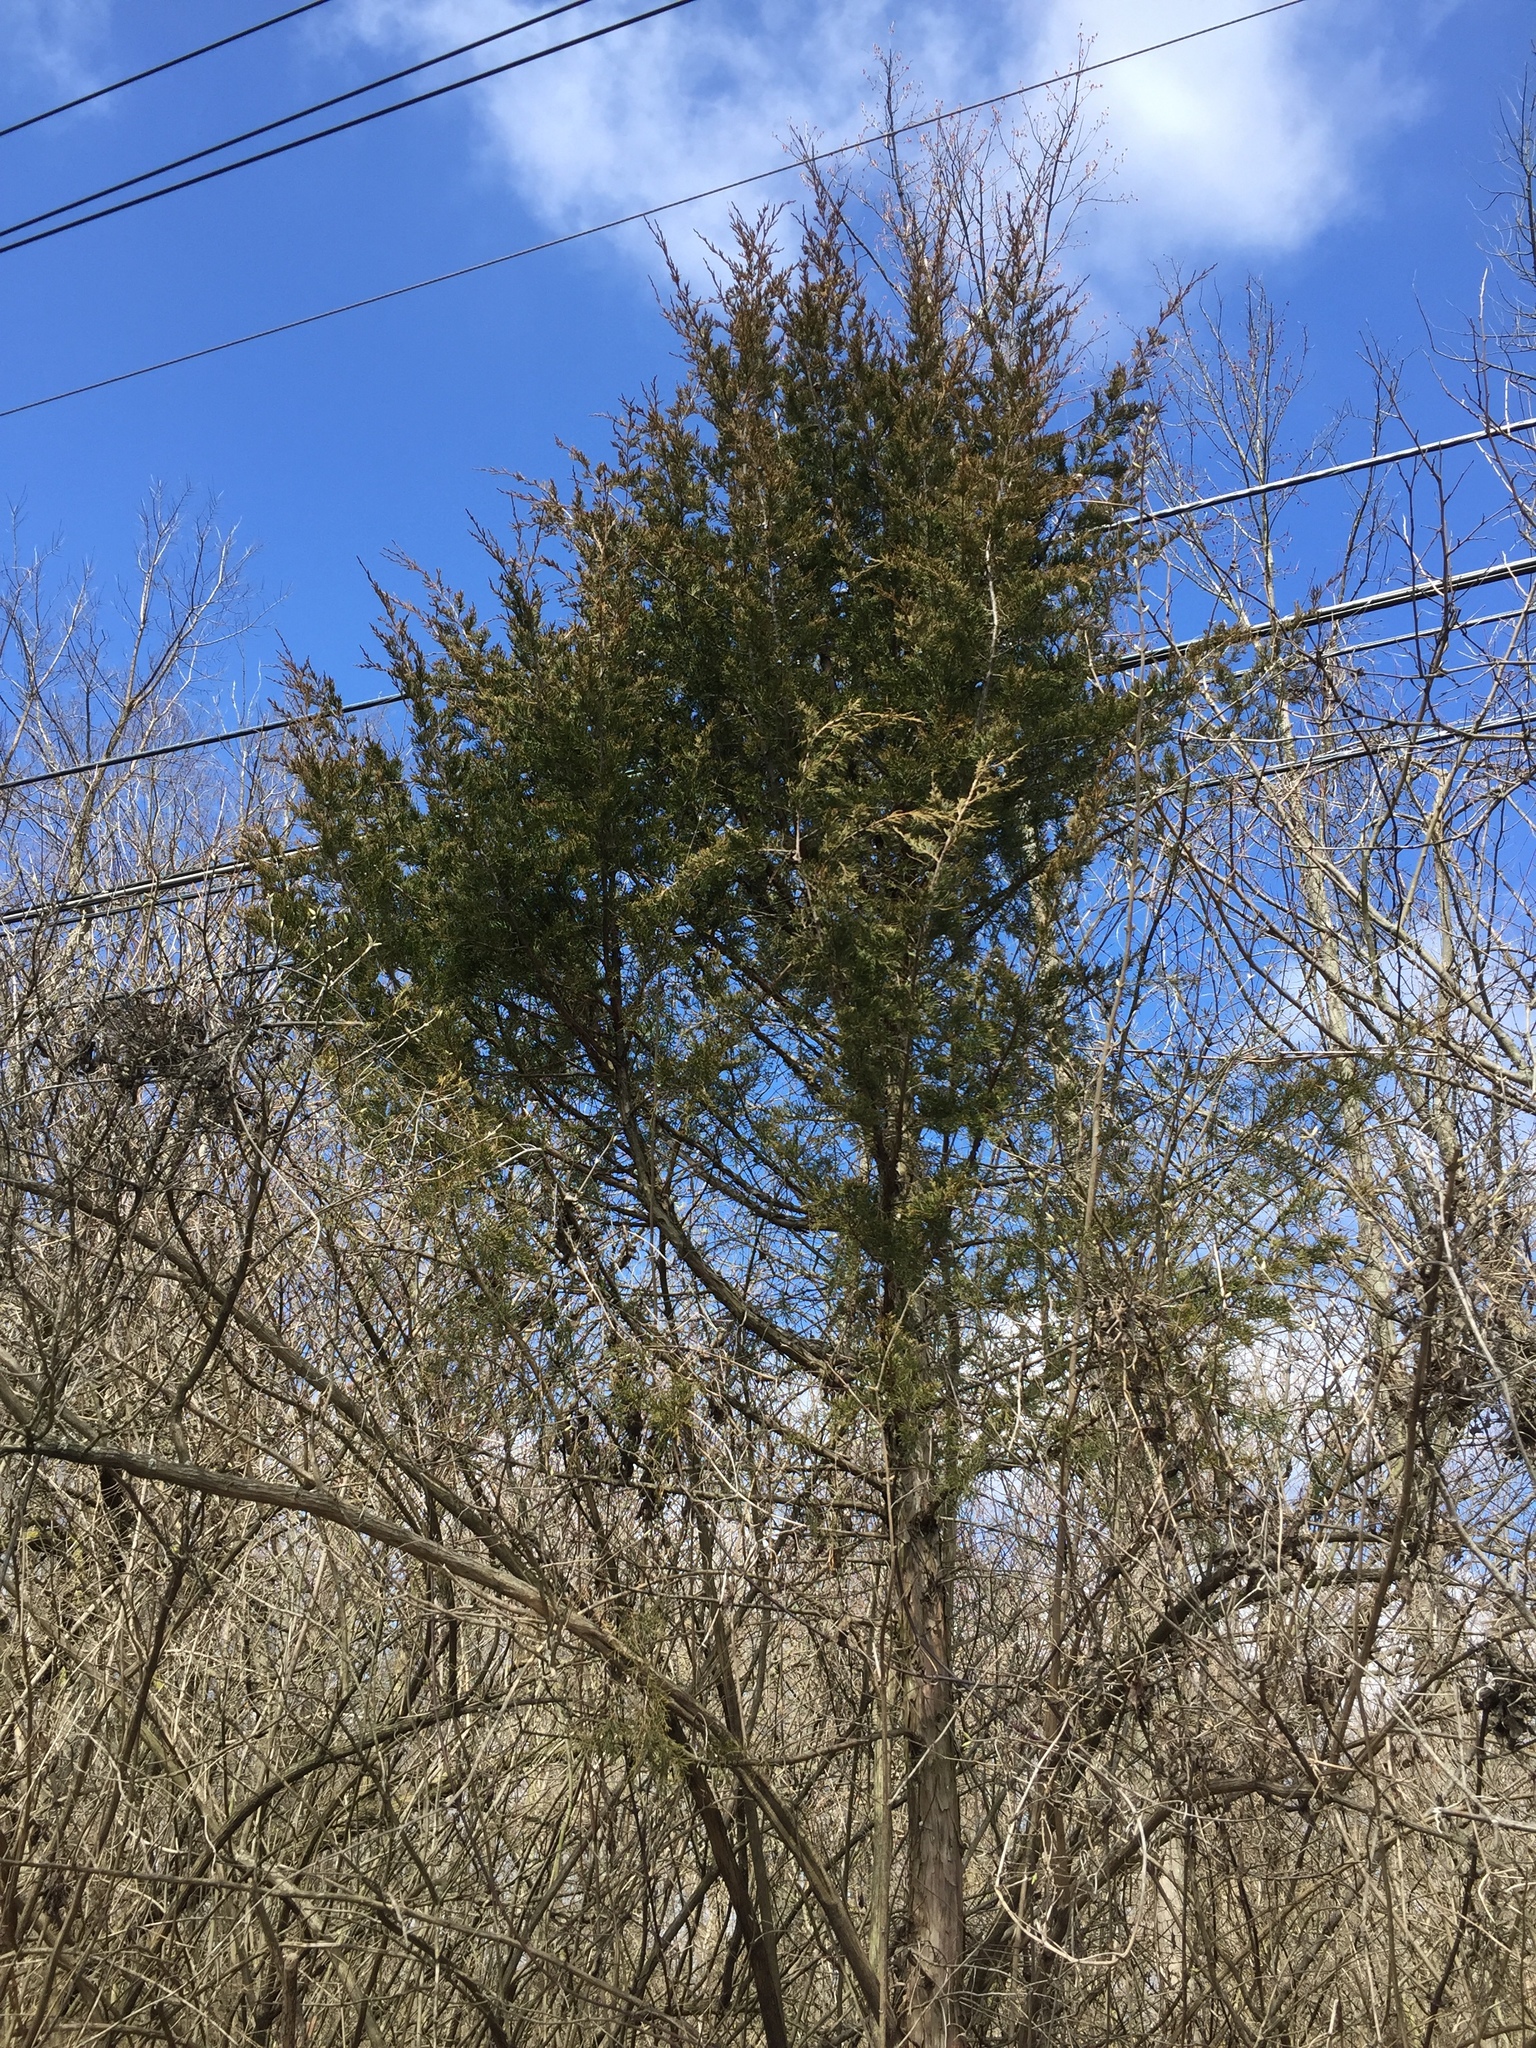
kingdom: Plantae
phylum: Tracheophyta
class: Pinopsida
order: Pinales
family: Cupressaceae
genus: Juniperus
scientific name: Juniperus virginiana
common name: Red juniper
